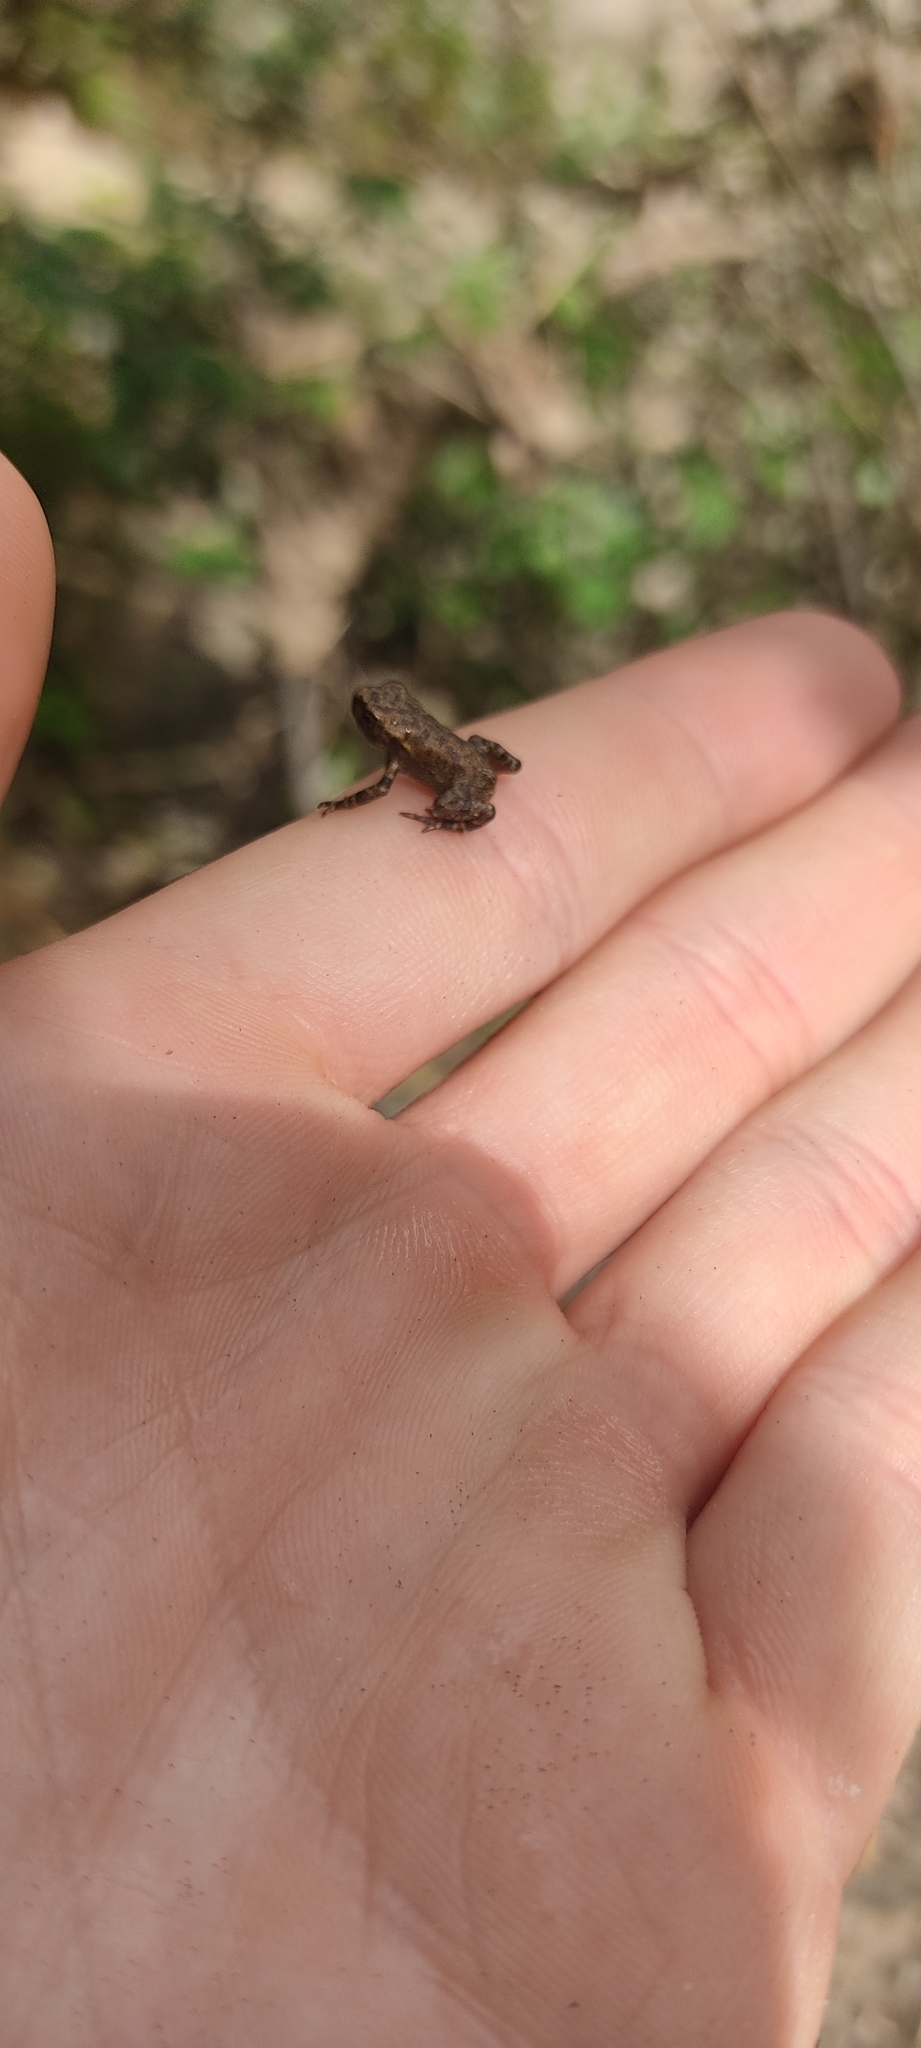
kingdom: Animalia
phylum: Chordata
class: Amphibia
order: Anura
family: Bufonidae
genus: Bufo
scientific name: Bufo spinosus
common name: Western common toad
